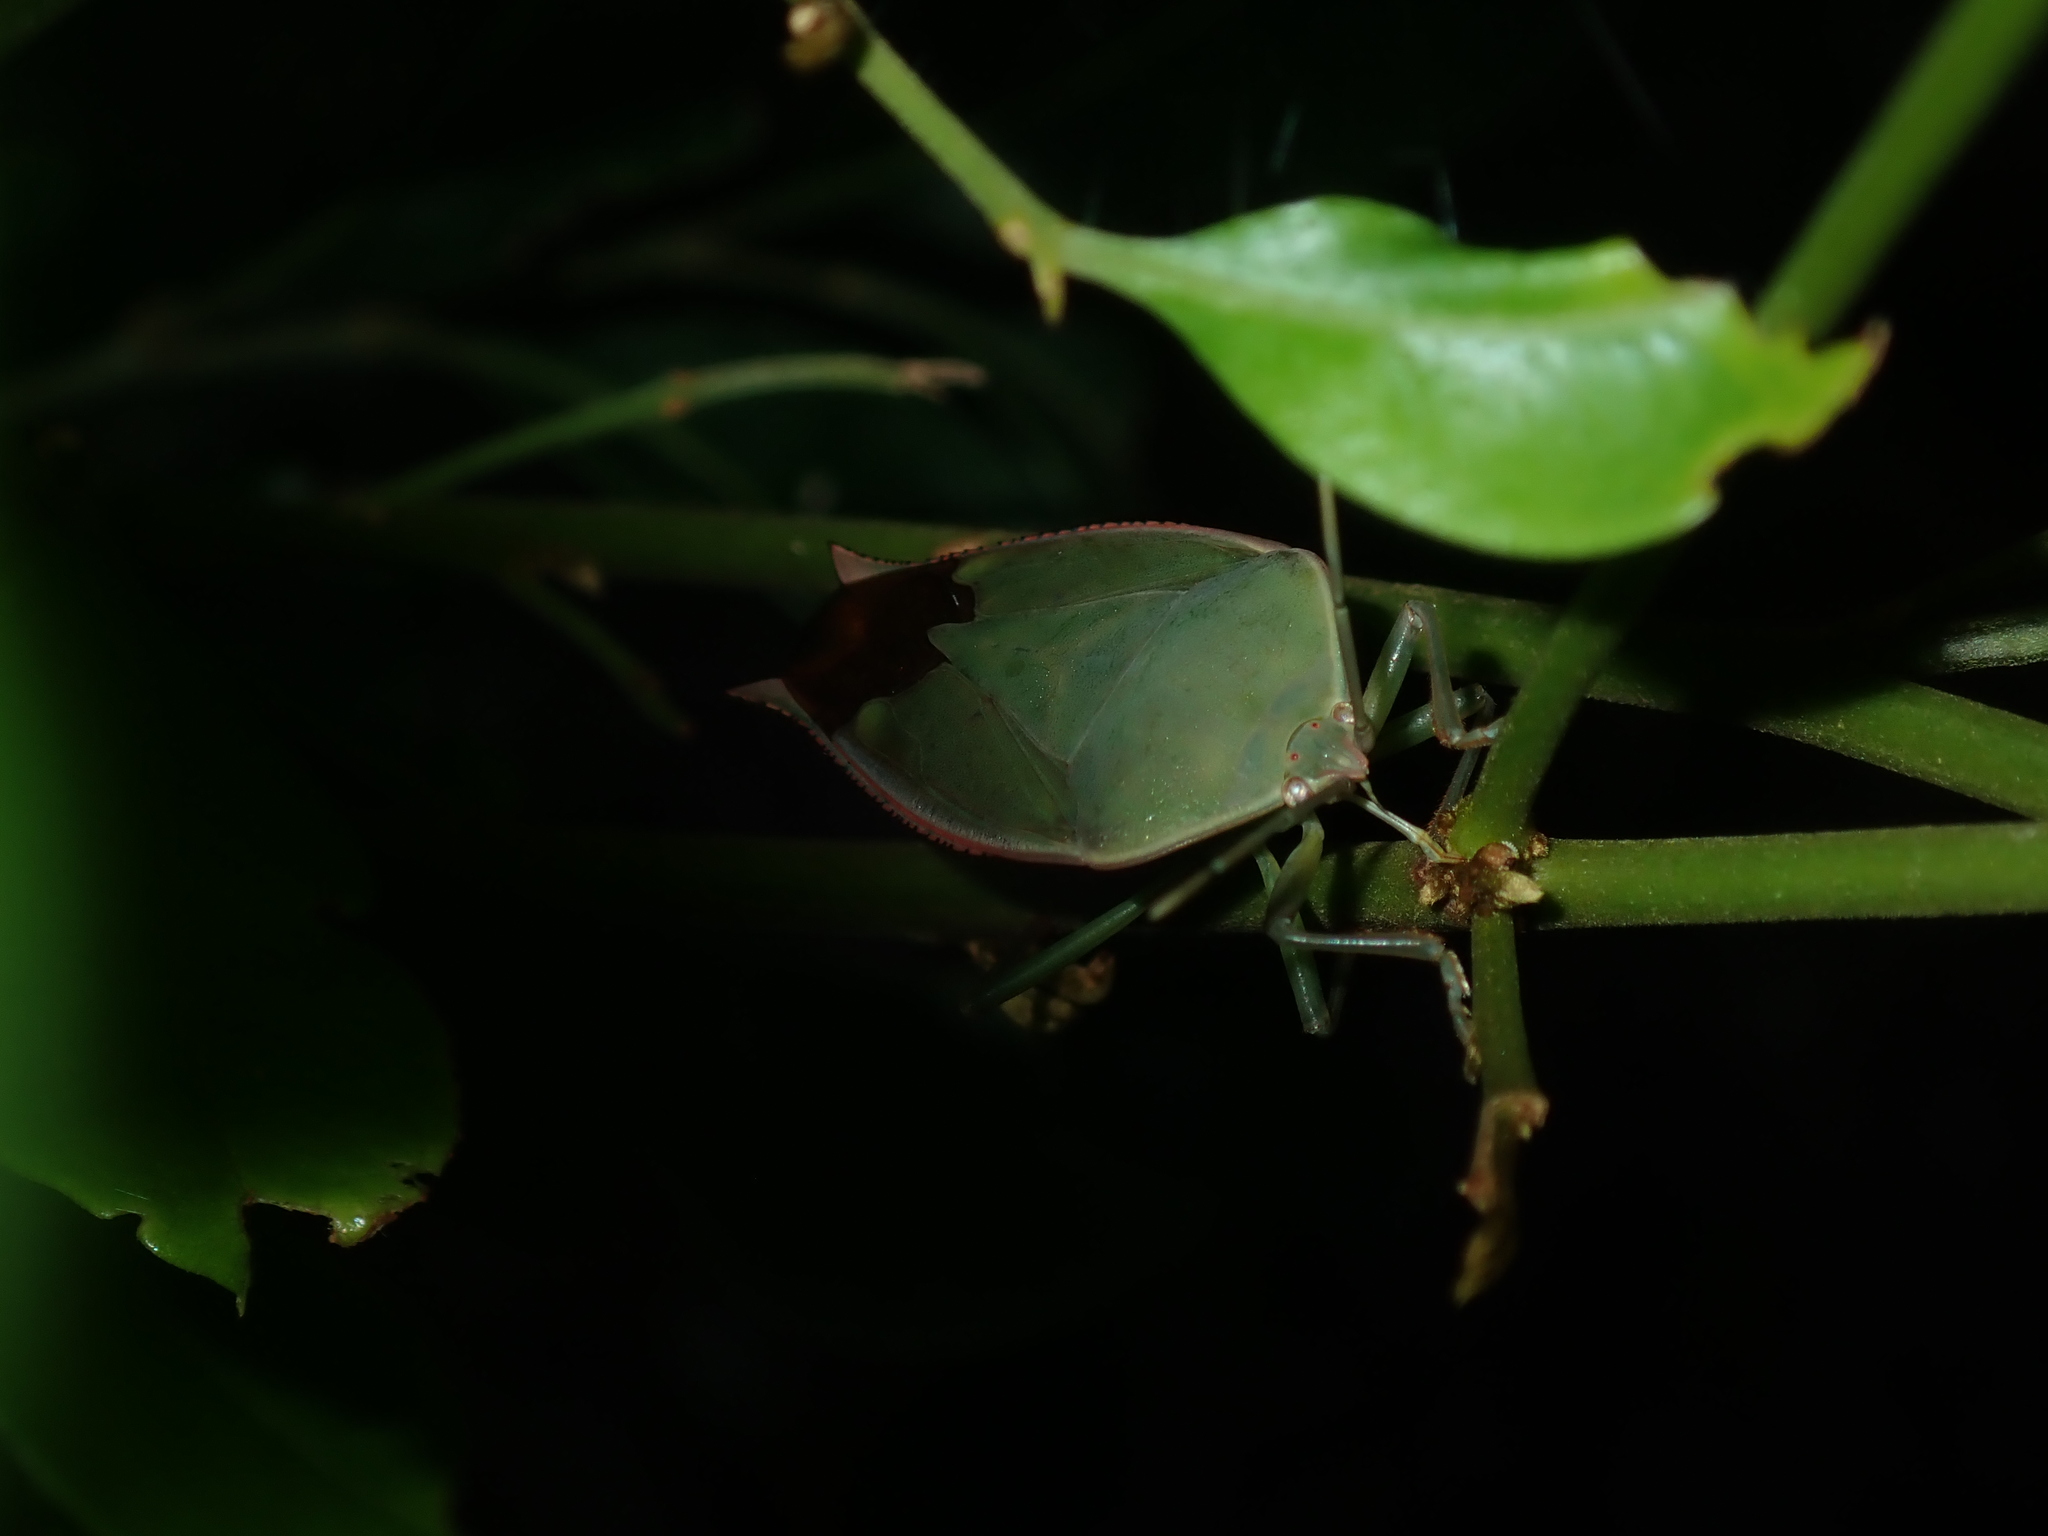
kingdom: Animalia
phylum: Arthropoda
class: Insecta
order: Hemiptera
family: Tessaratomidae
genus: Lyramorpha
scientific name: Lyramorpha rosea
